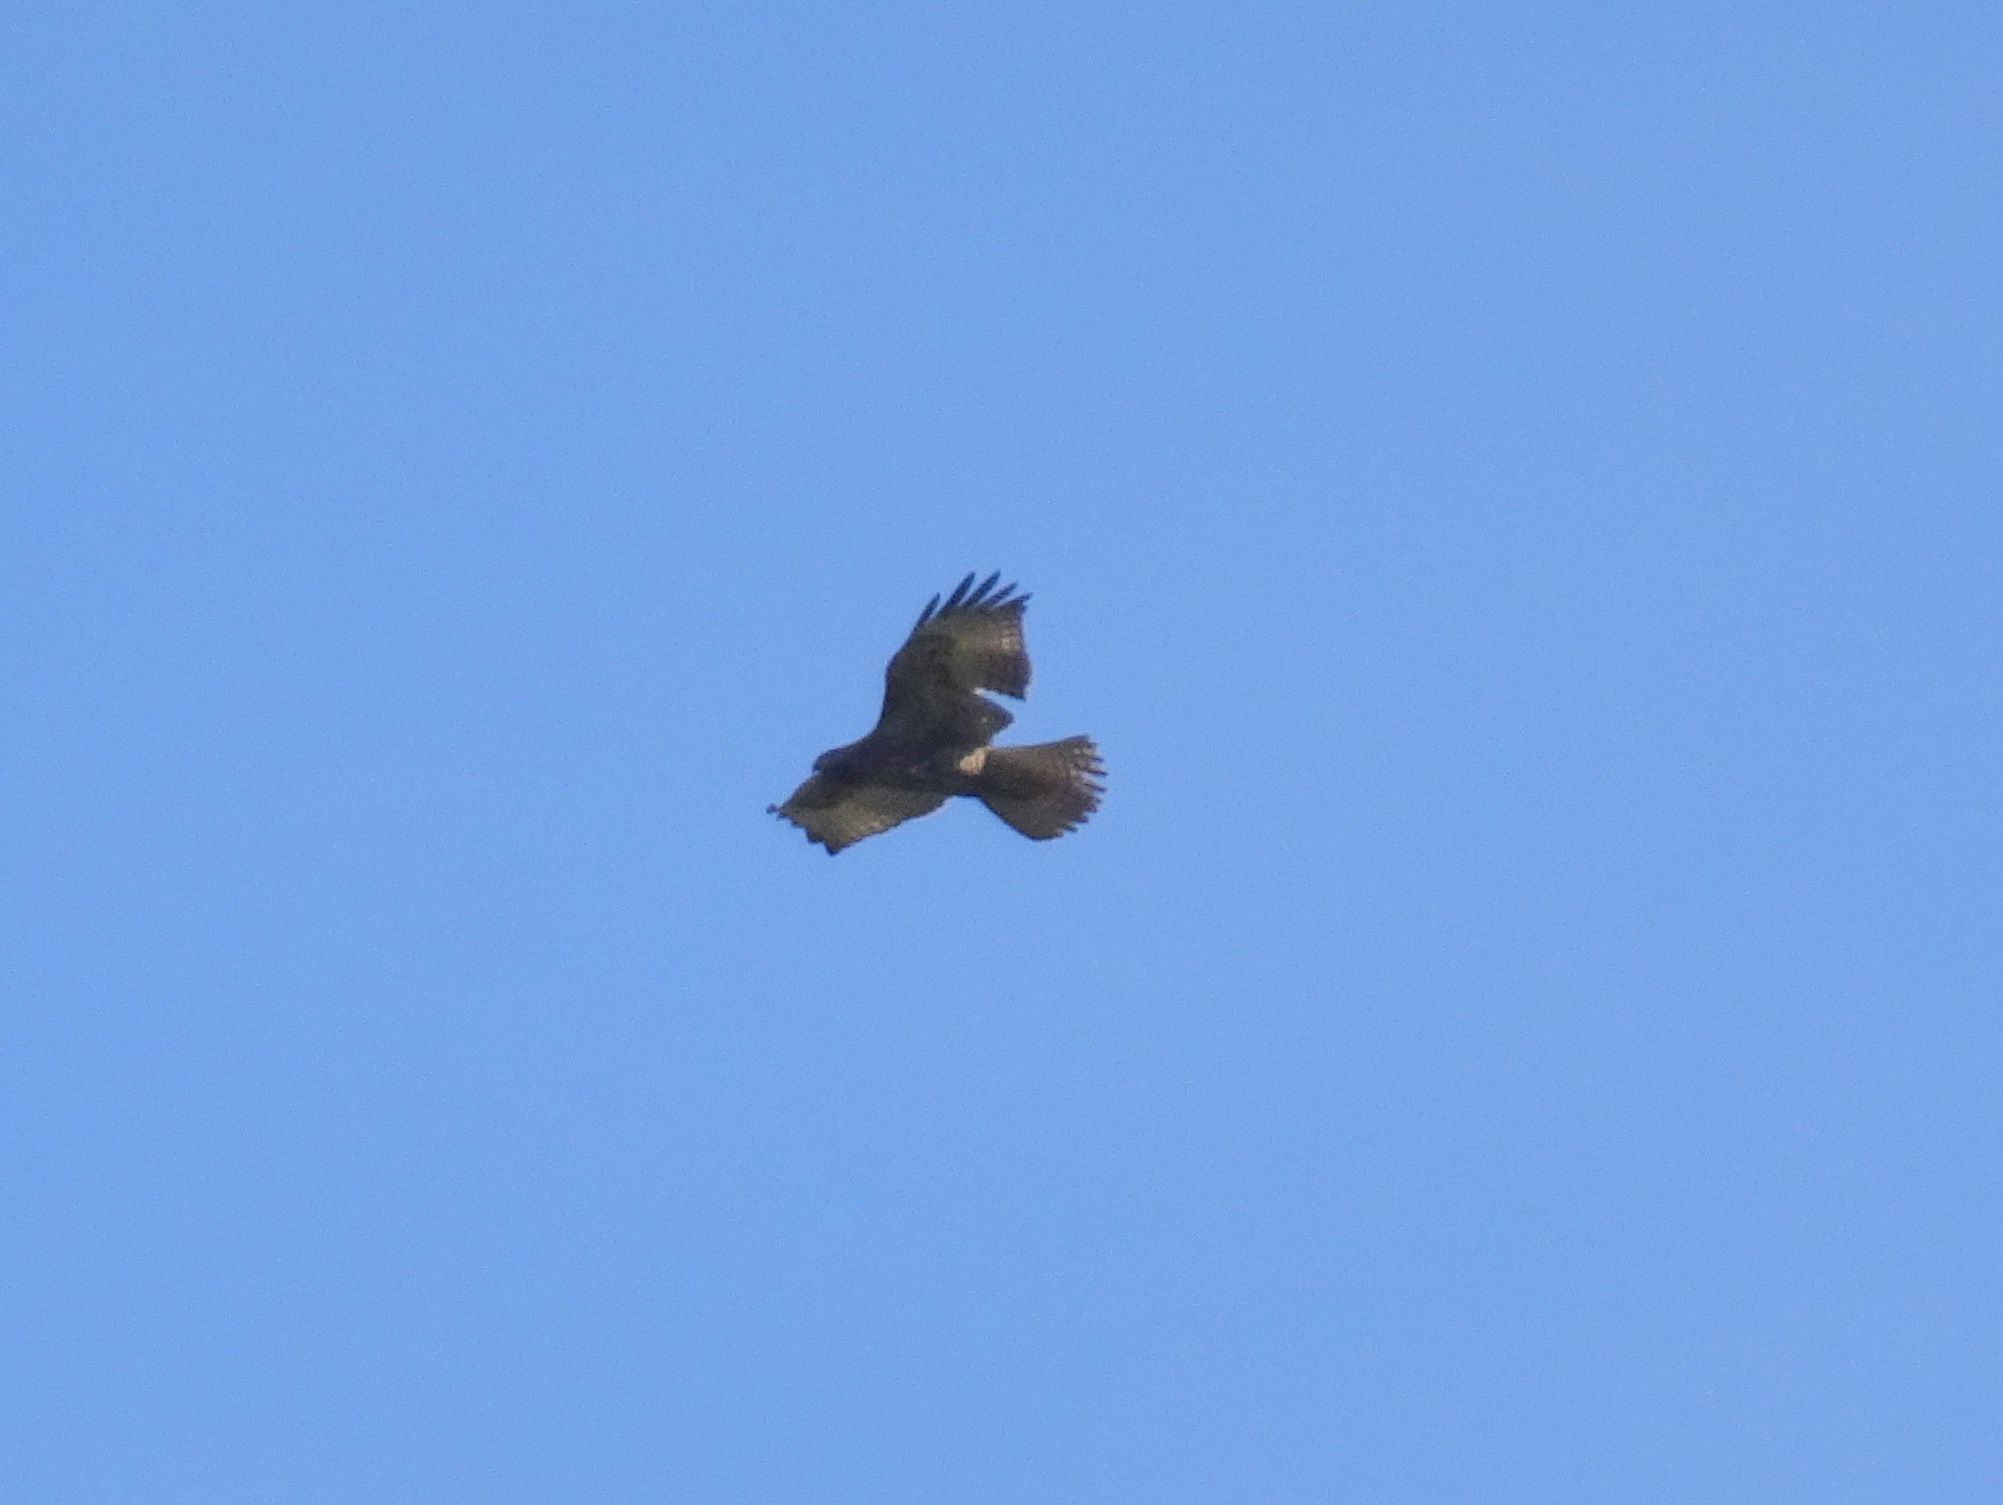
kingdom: Animalia
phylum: Chordata
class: Aves
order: Accipitriformes
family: Accipitridae
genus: Buteo
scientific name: Buteo jamaicensis
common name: Red-tailed hawk
